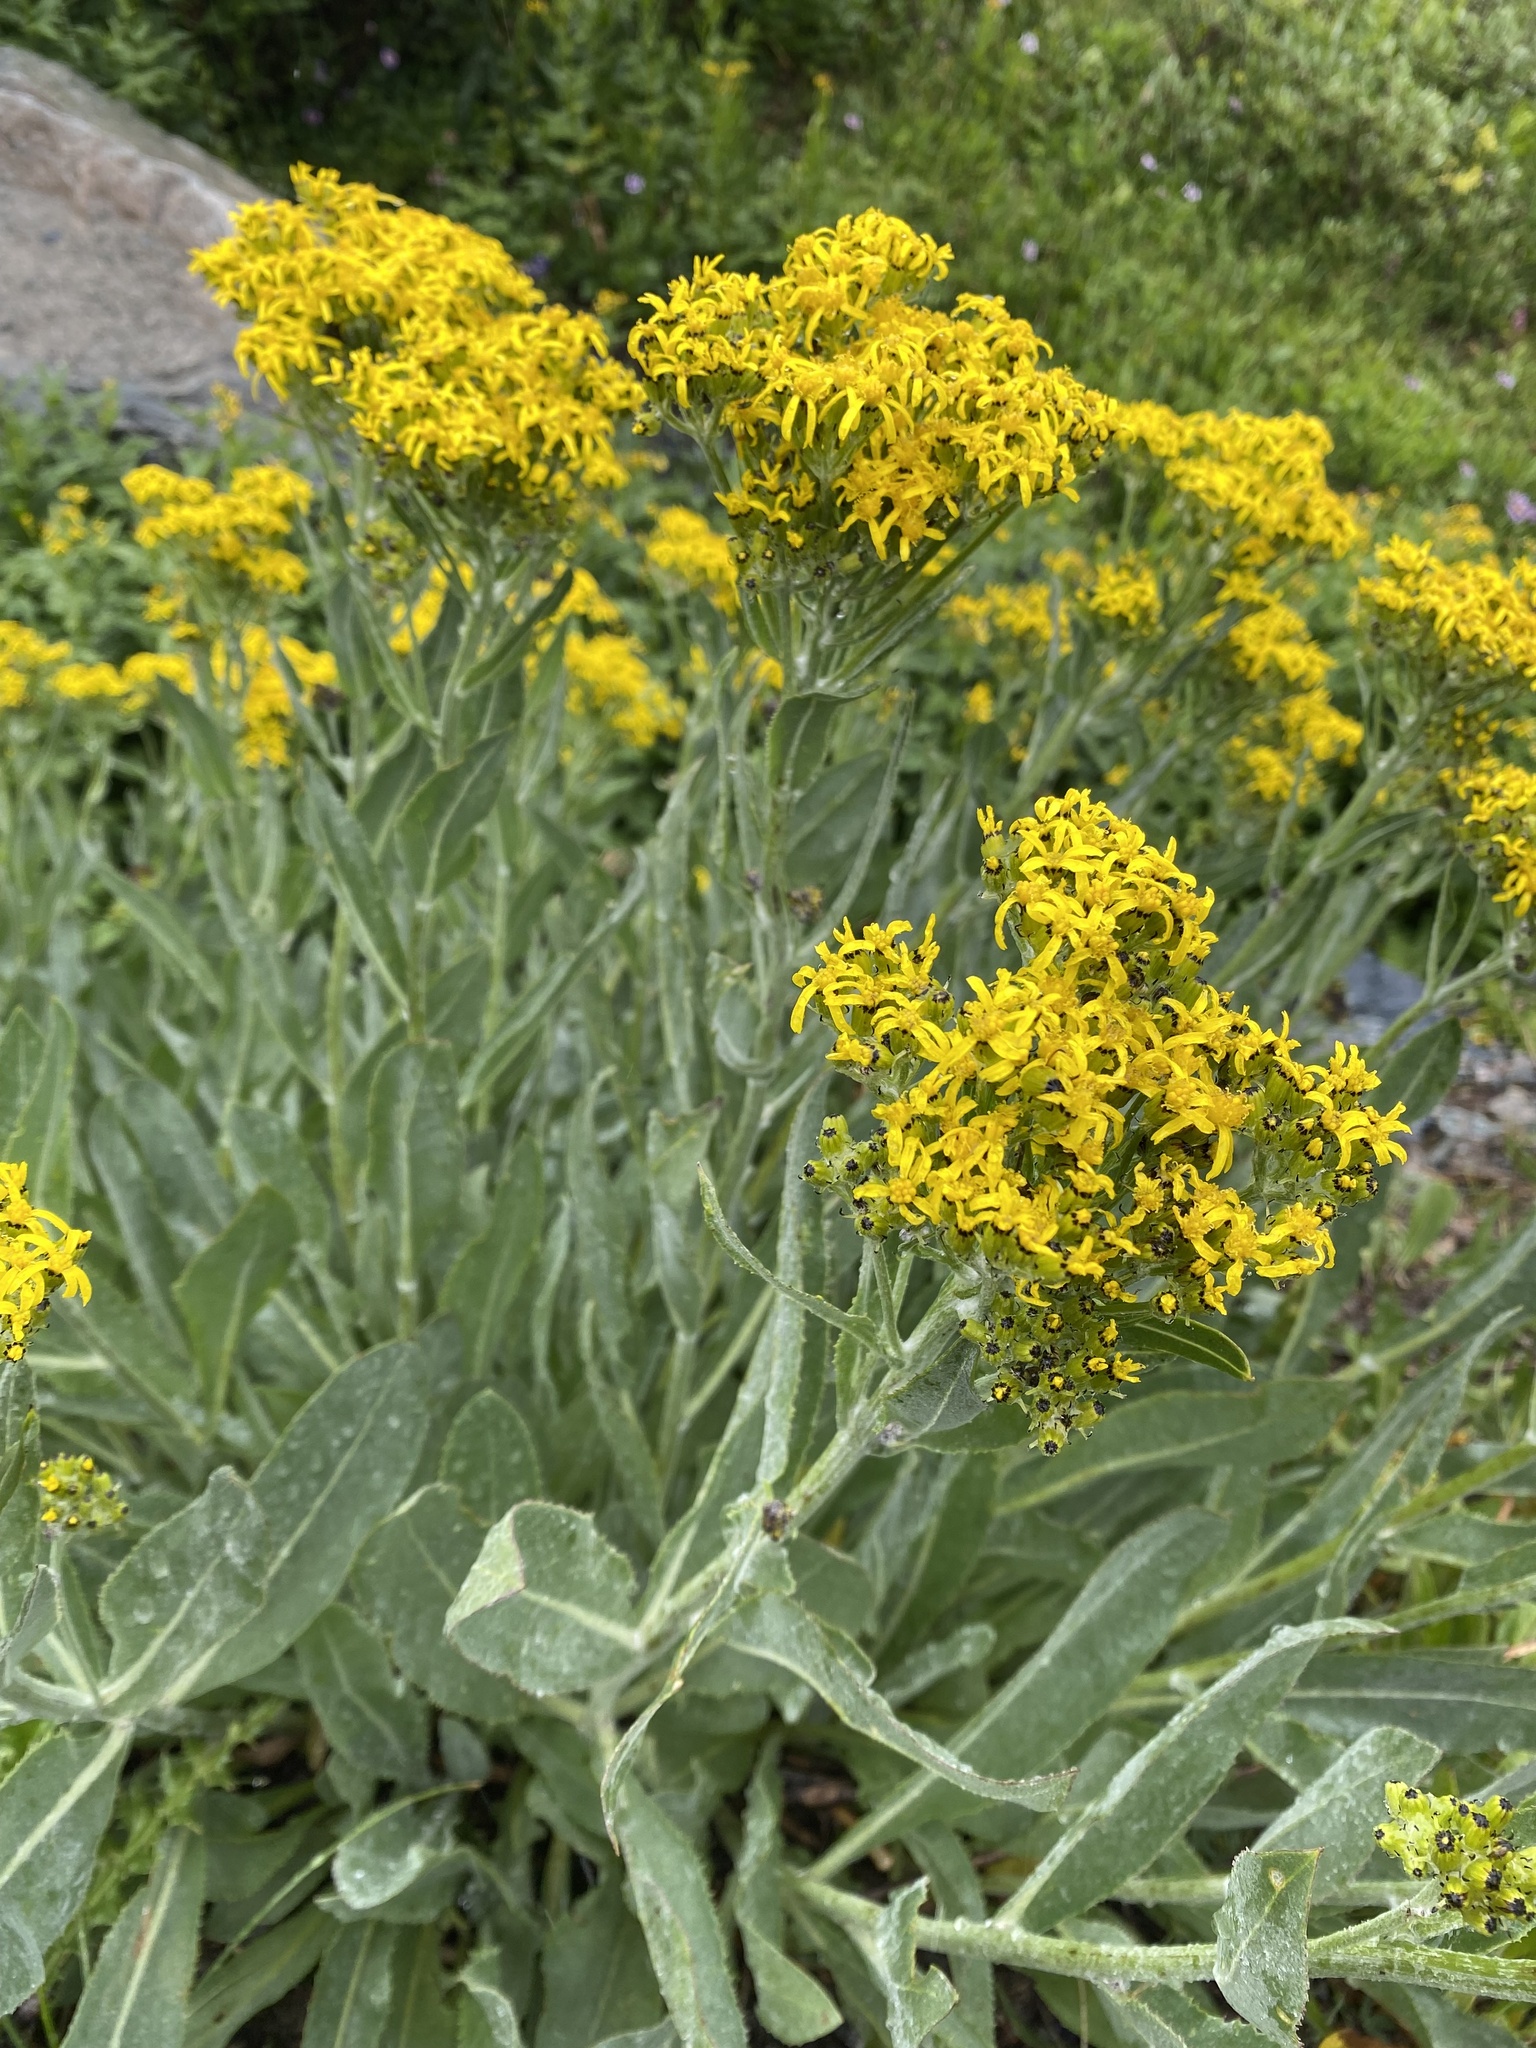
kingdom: Plantae
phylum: Tracheophyta
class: Magnoliopsida
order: Asterales
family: Asteraceae
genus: Senecio
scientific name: Senecio atratus
